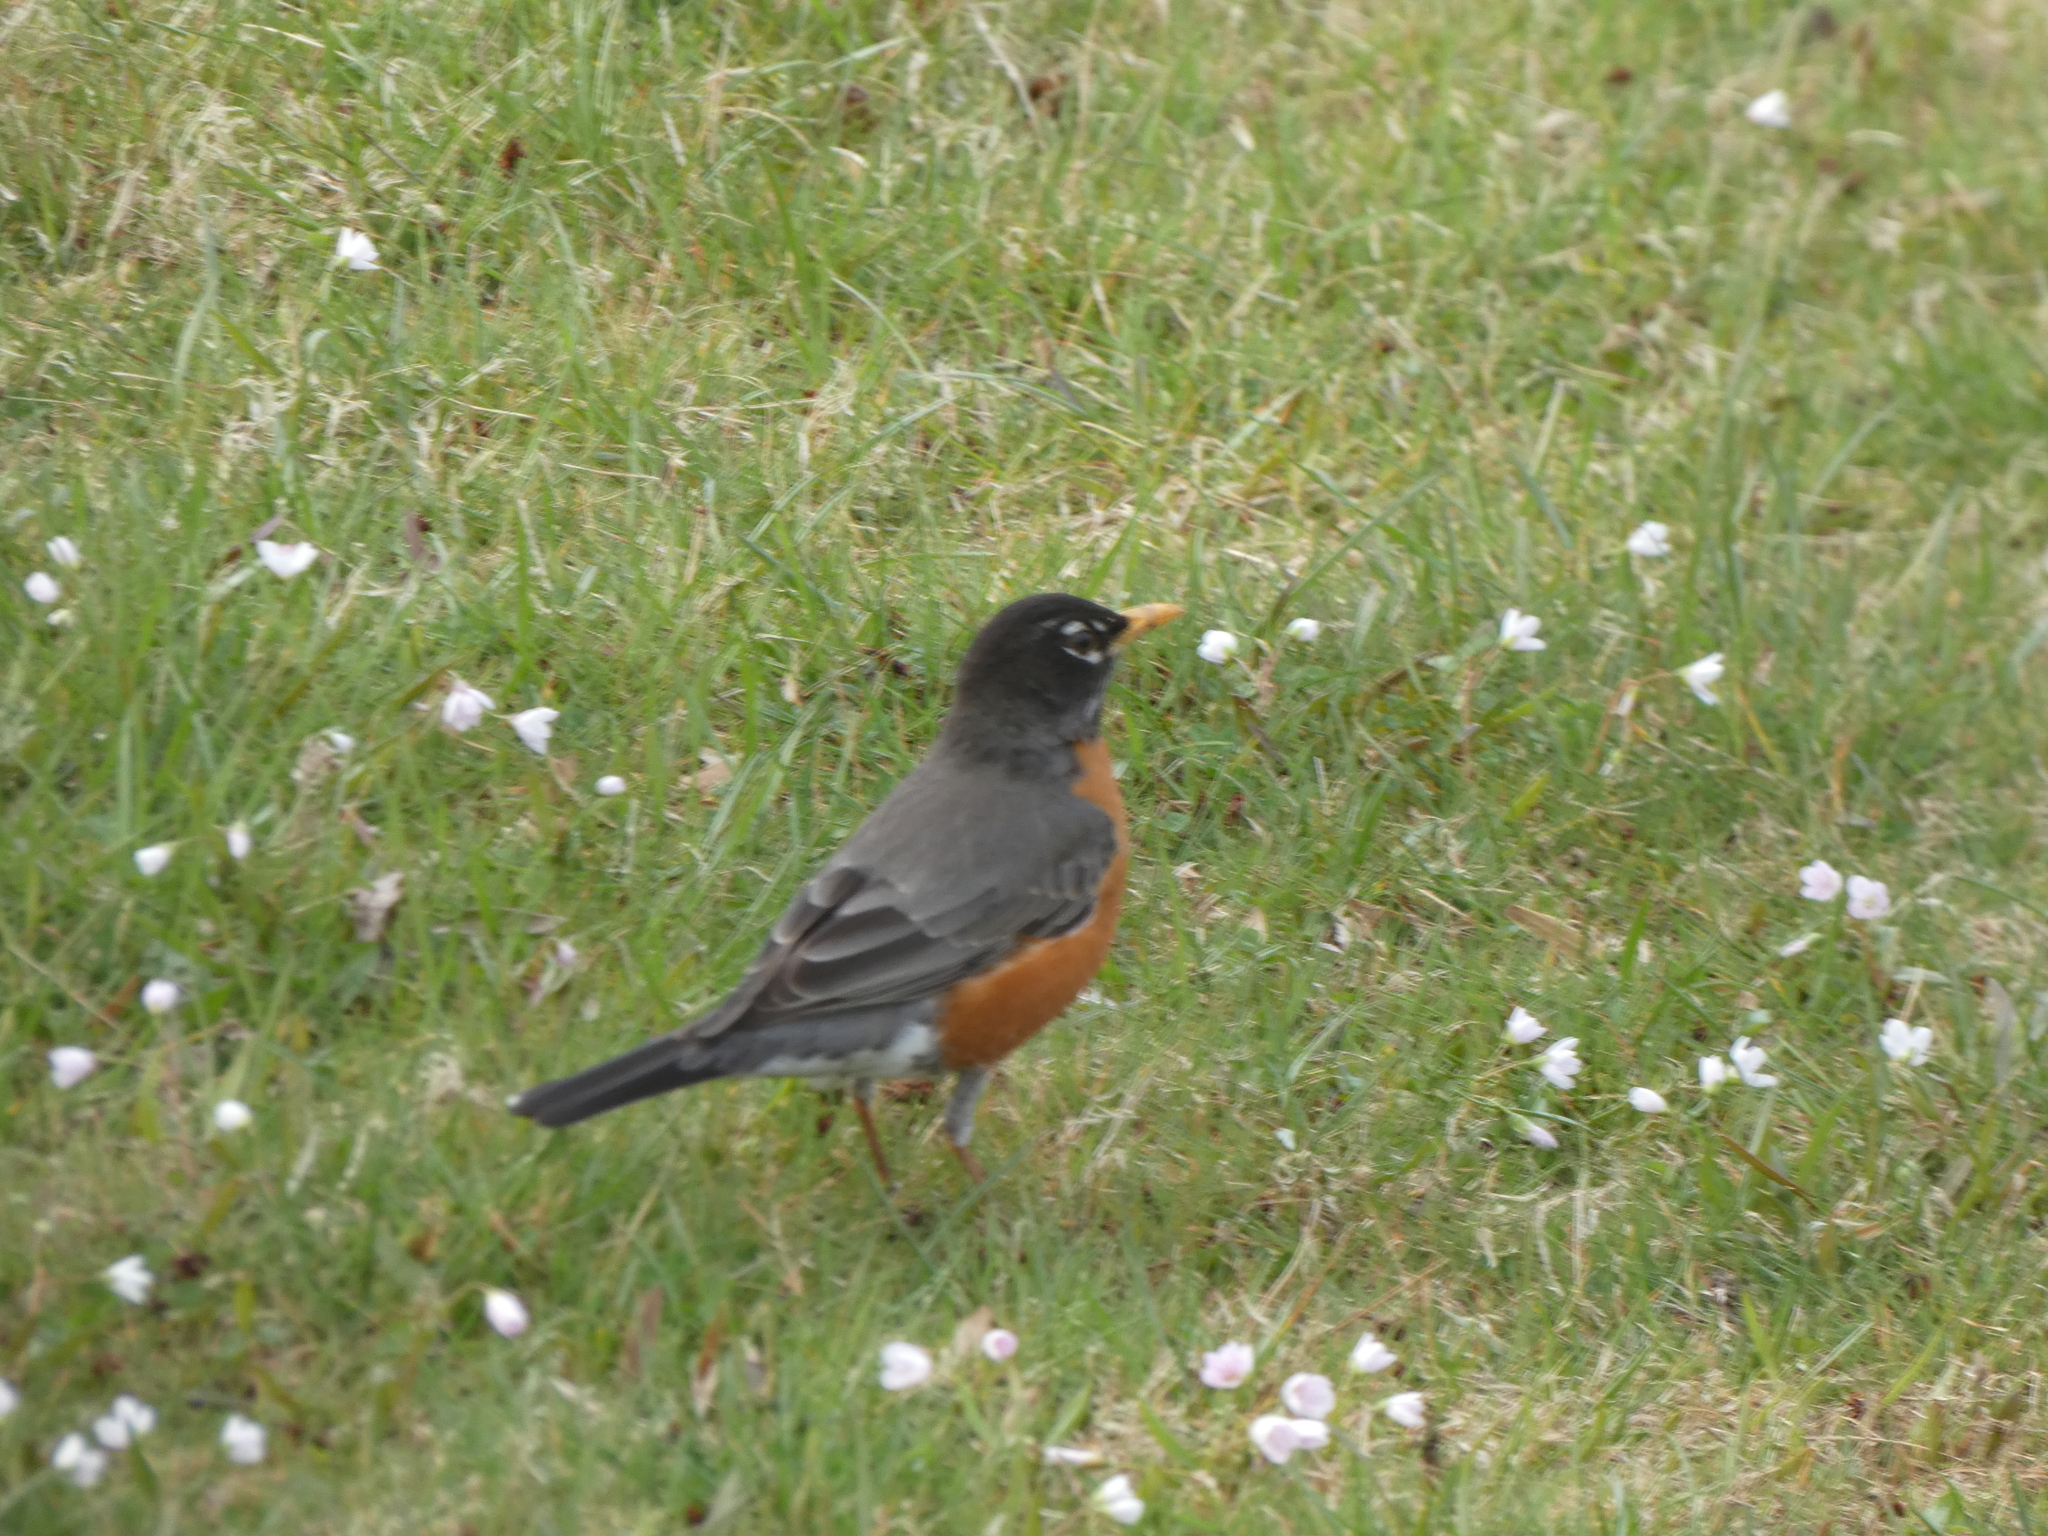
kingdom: Animalia
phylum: Chordata
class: Aves
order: Passeriformes
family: Turdidae
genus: Turdus
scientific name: Turdus migratorius
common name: American robin
